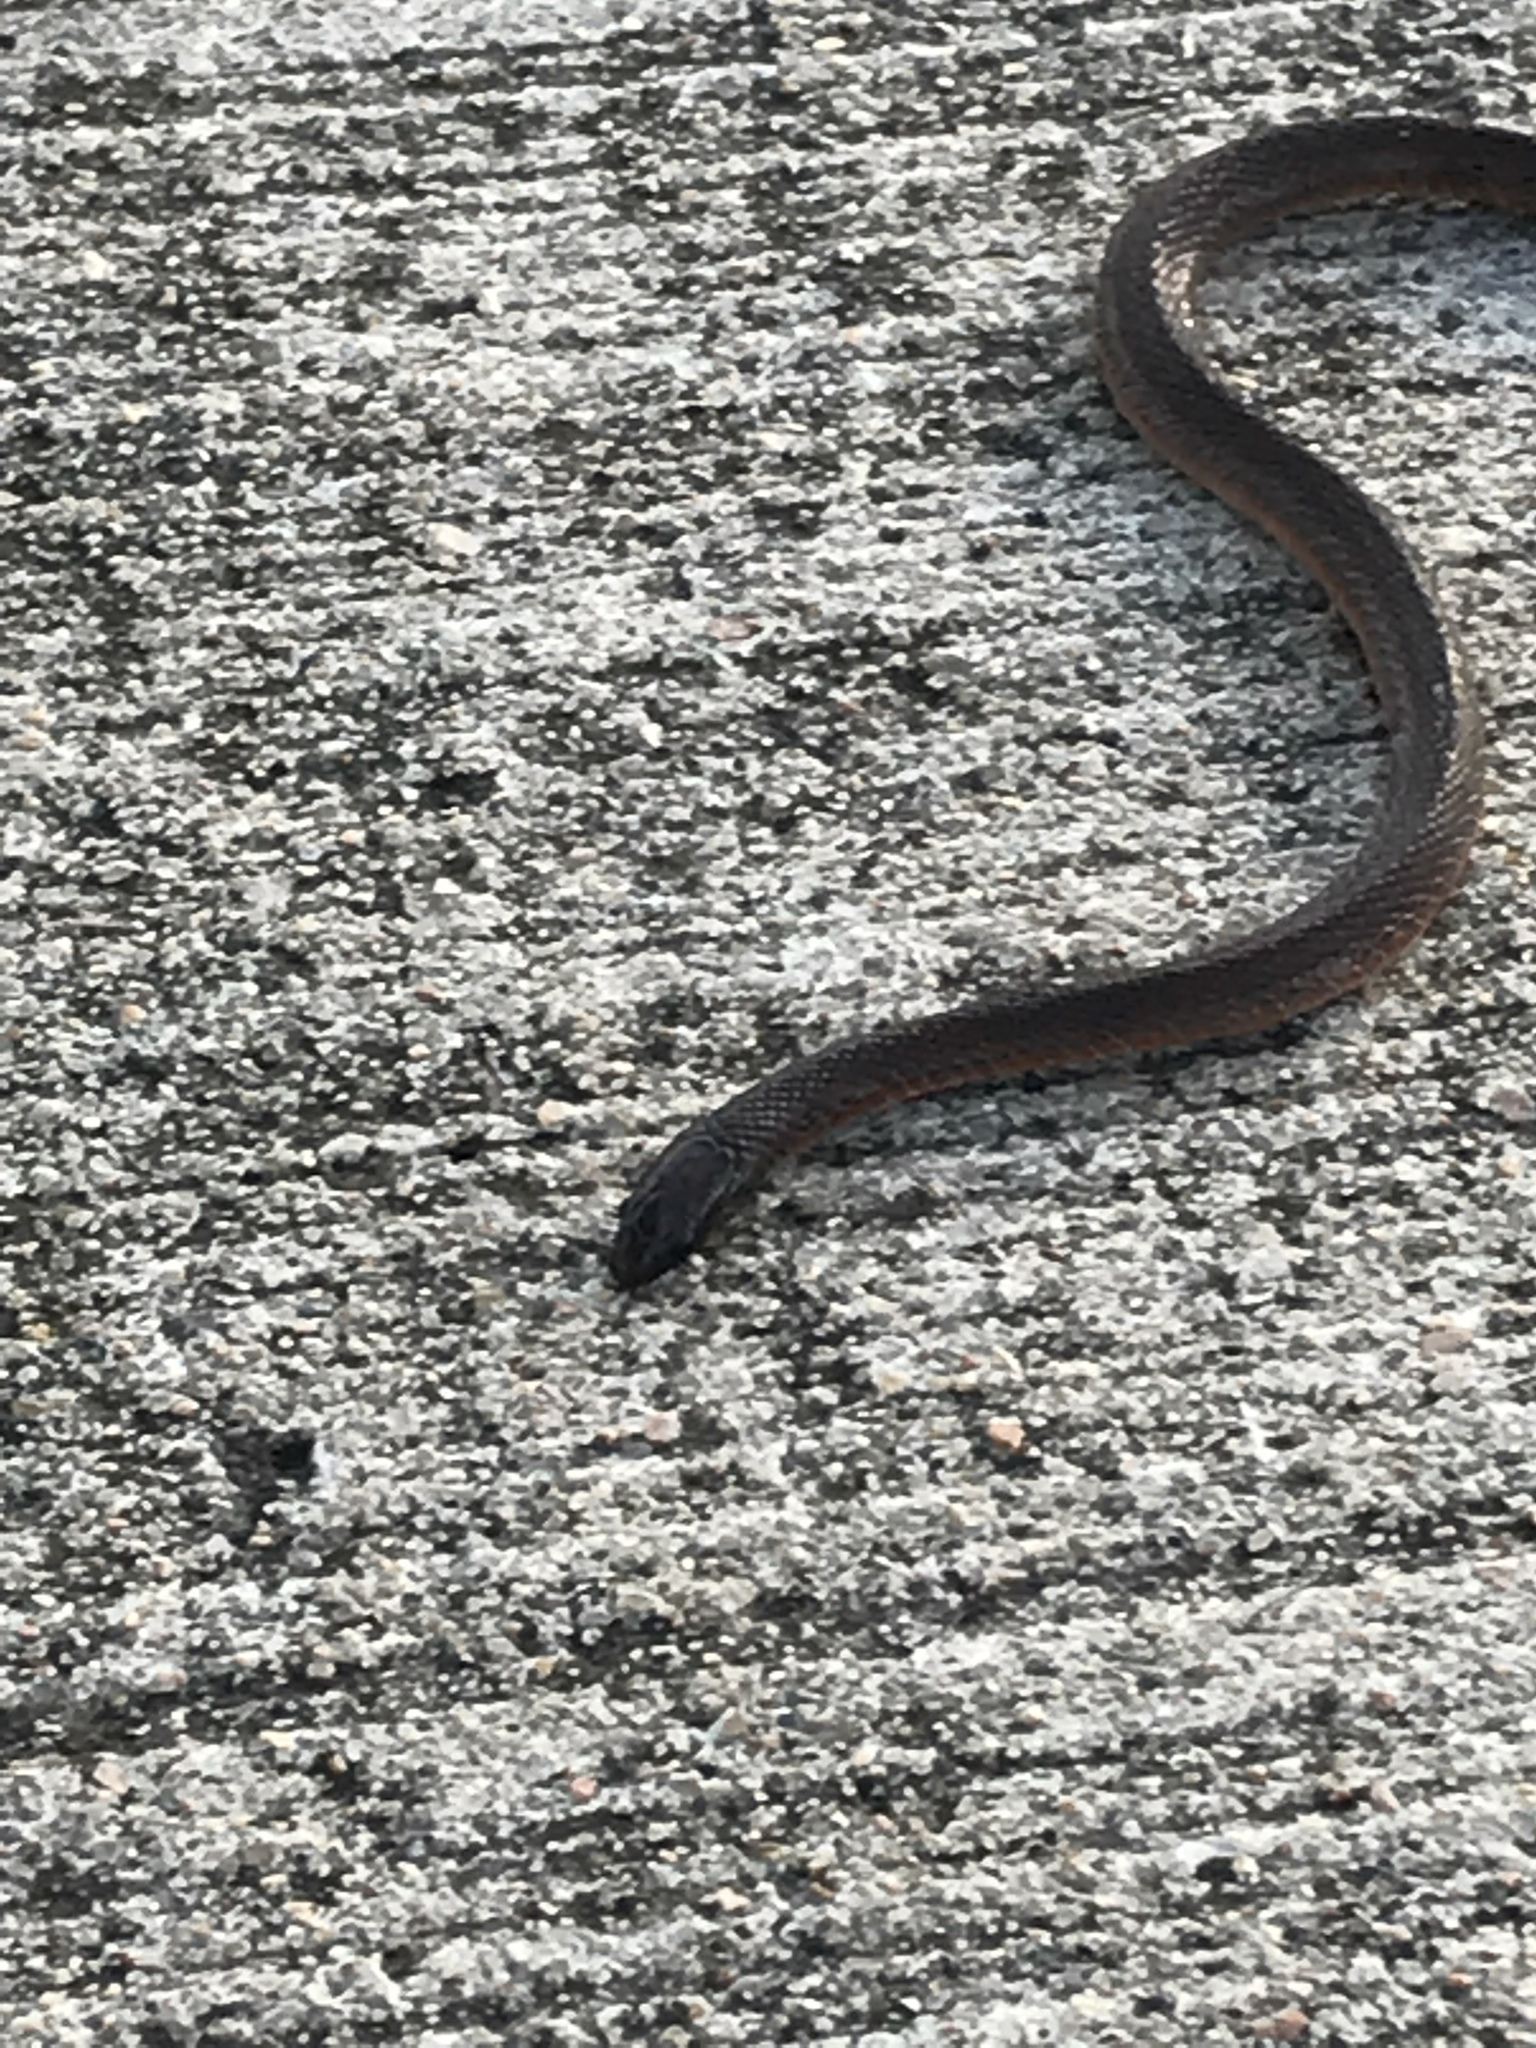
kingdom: Animalia
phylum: Chordata
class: Squamata
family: Colubridae
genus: Haldea
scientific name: Haldea striatula
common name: Rough earth snake
